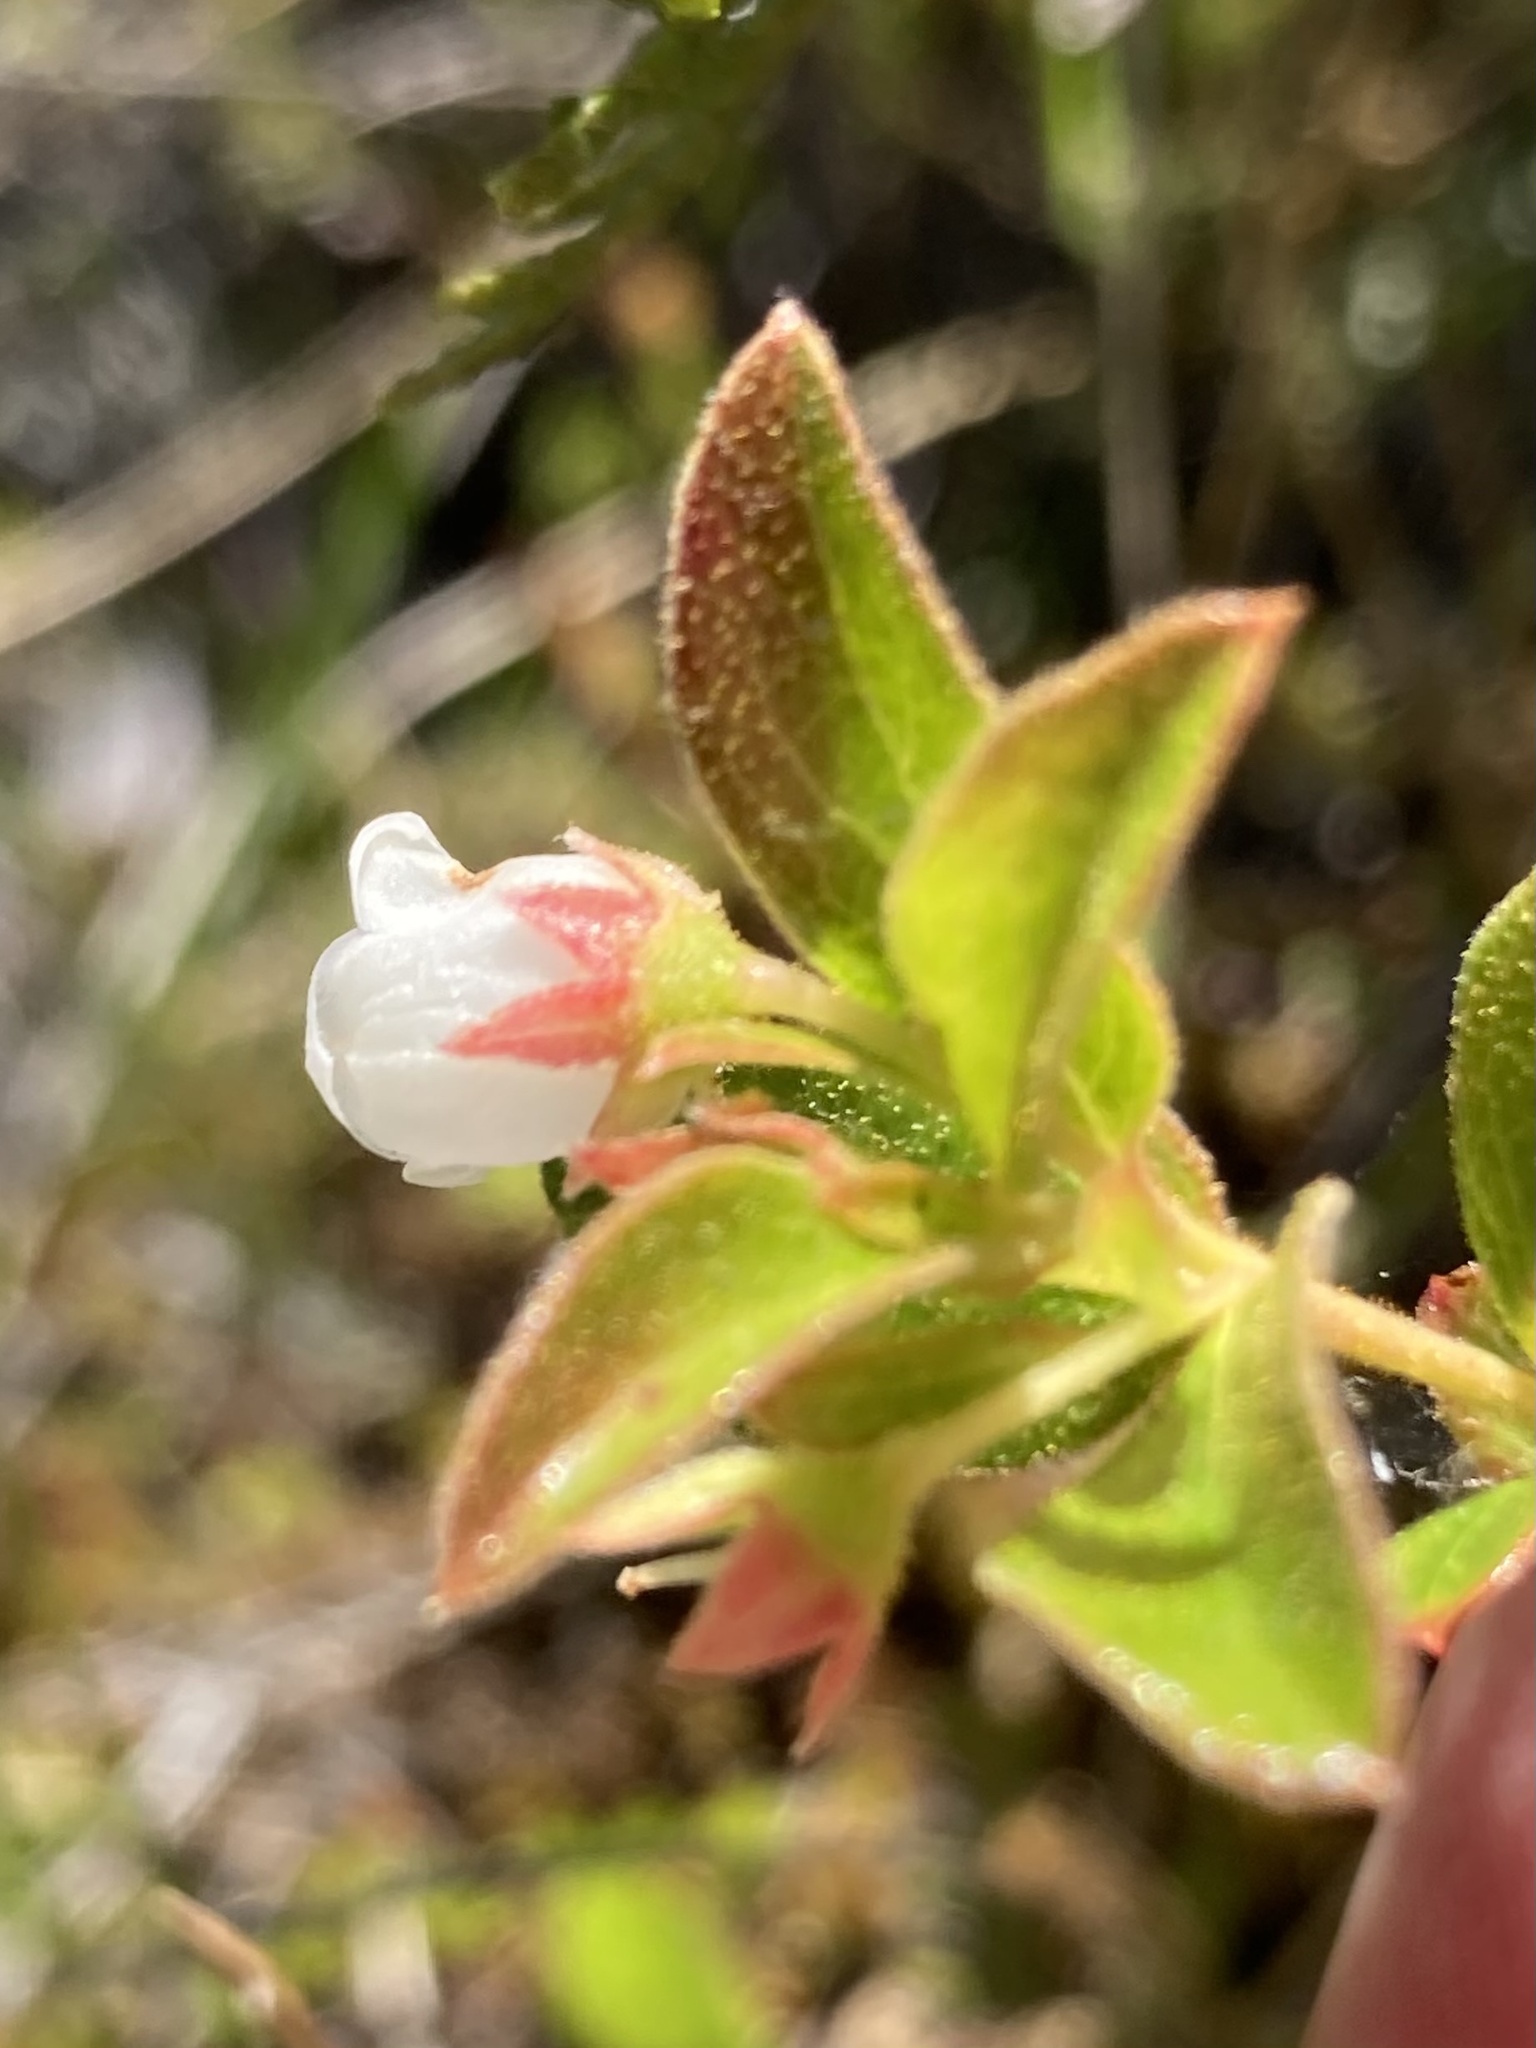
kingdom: Plantae
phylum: Tracheophyta
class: Magnoliopsida
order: Ericales
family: Ericaceae
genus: Gaylussacia
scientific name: Gaylussacia bigeloviana
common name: Bog huckleberry
